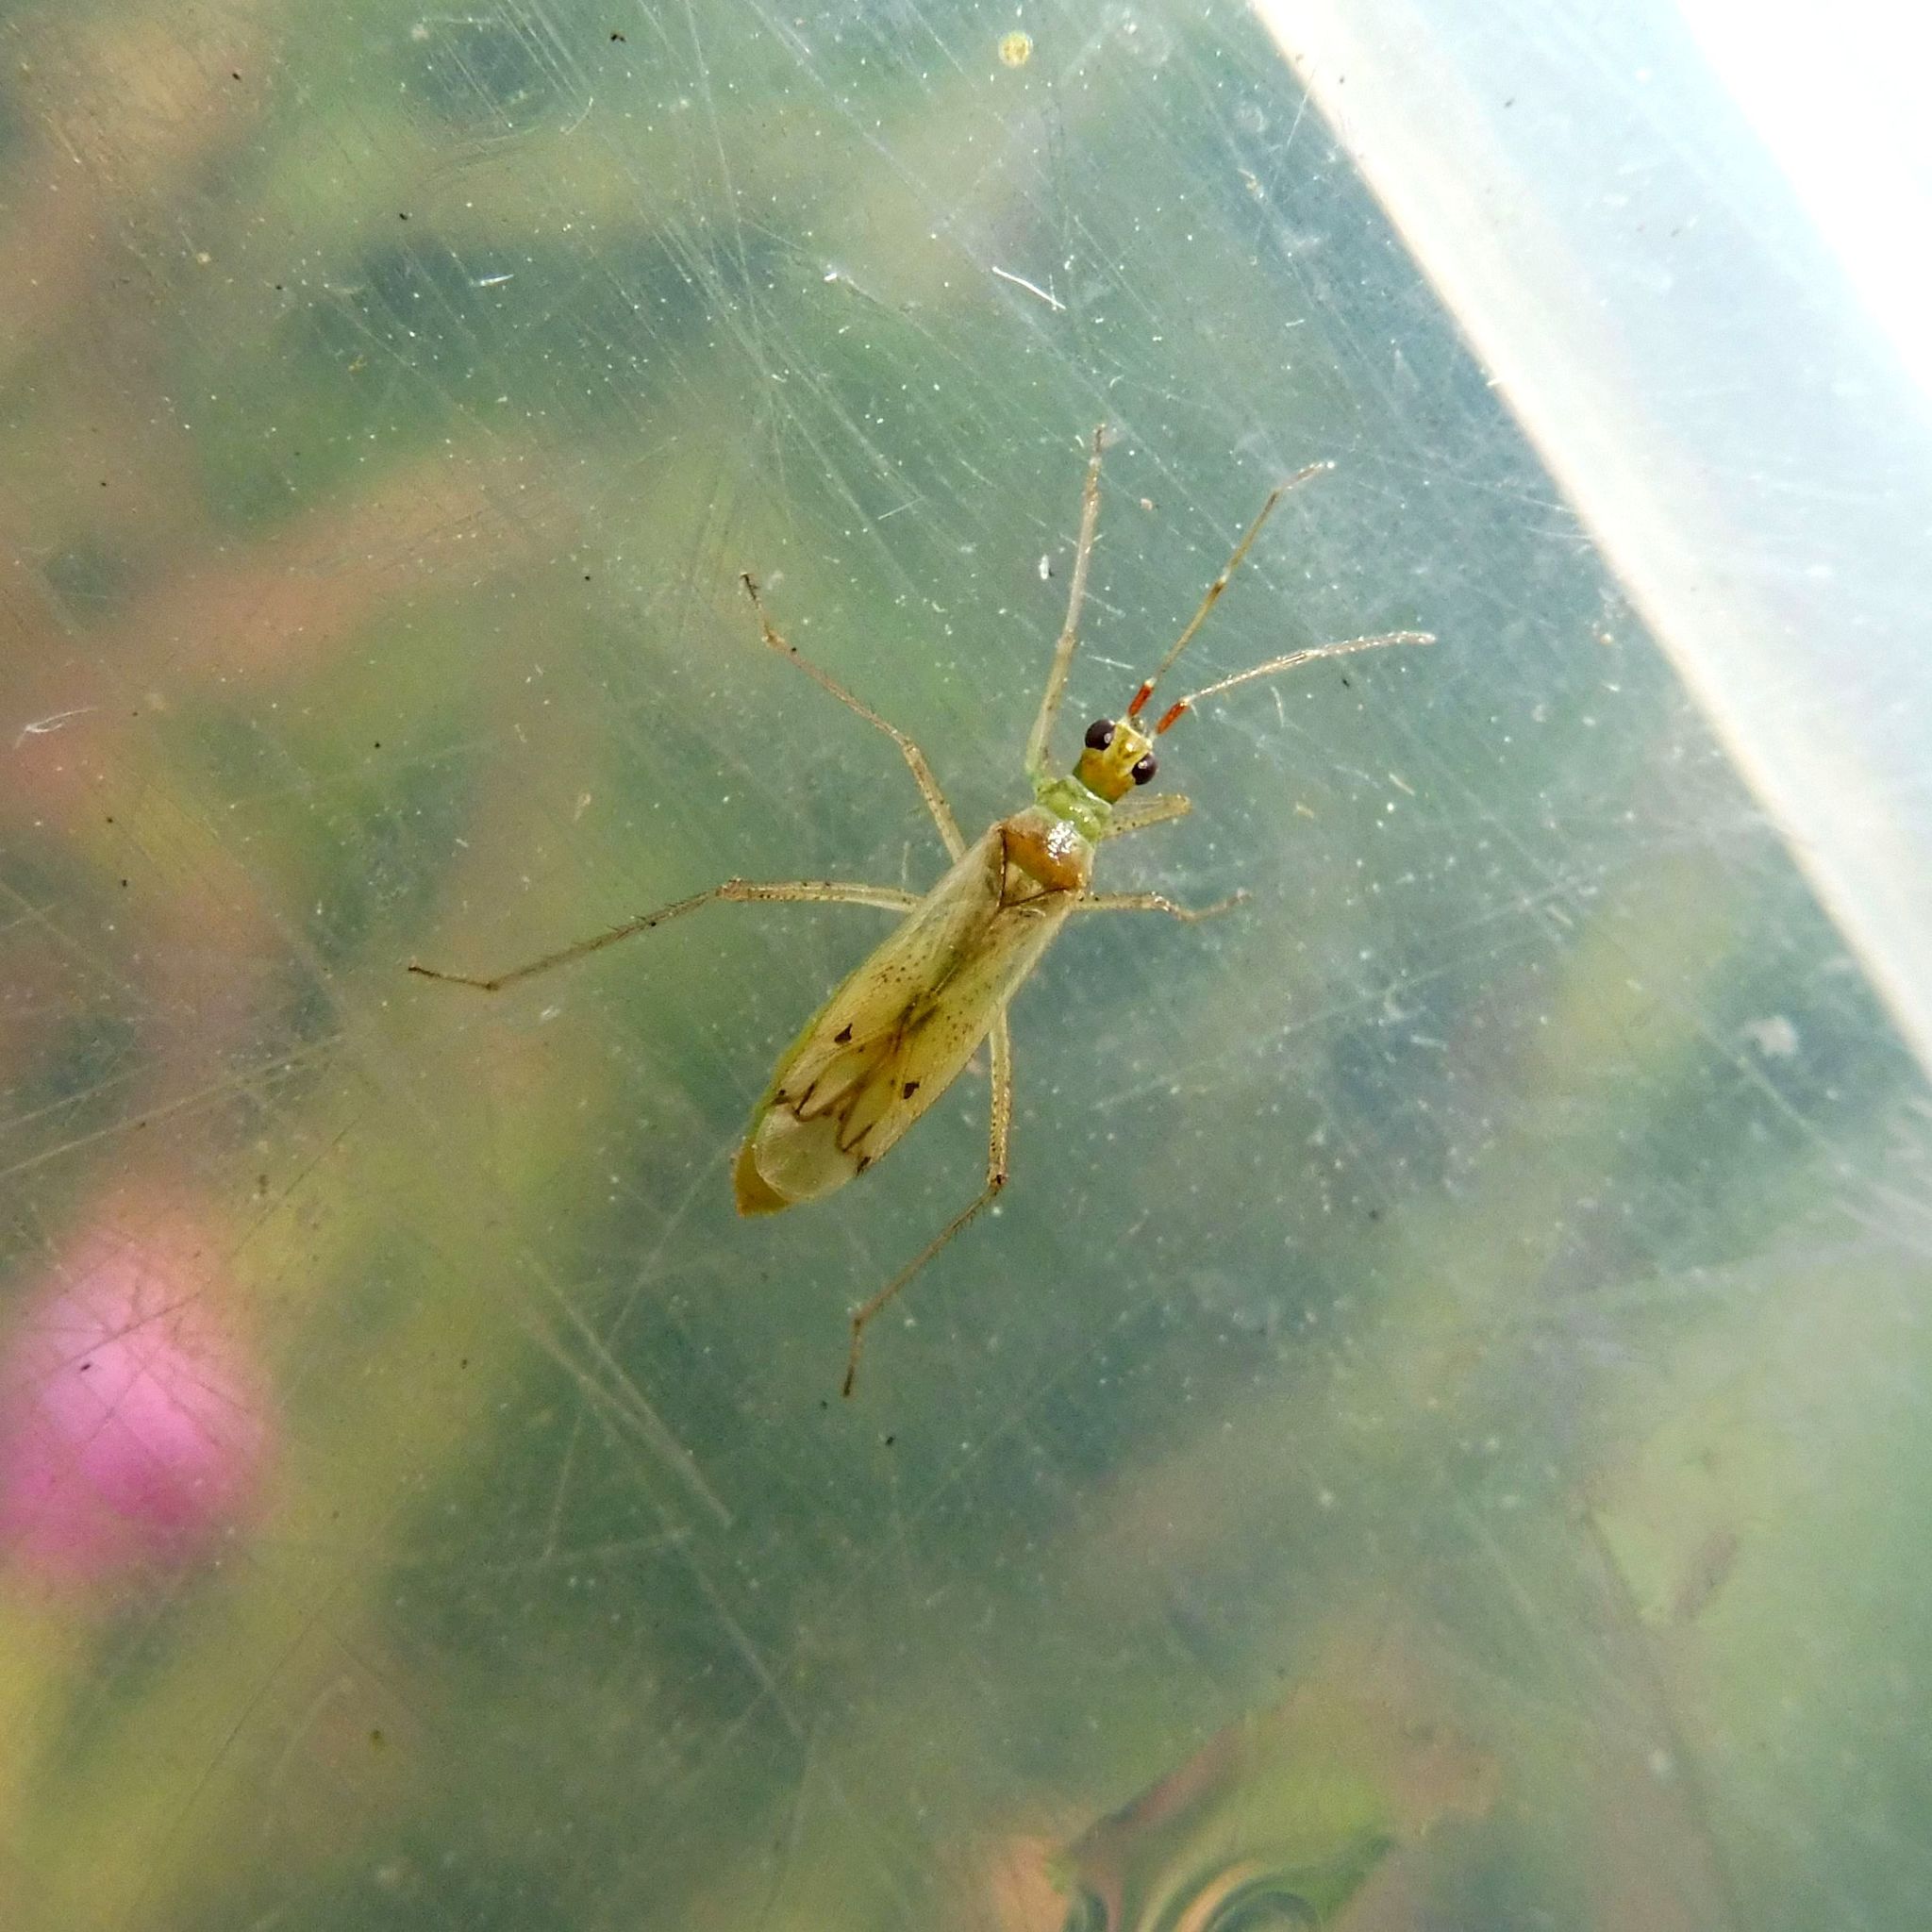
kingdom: Animalia
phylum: Arthropoda
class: Insecta
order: Hemiptera
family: Miridae
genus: Dicyphus
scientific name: Dicyphus epilobii
